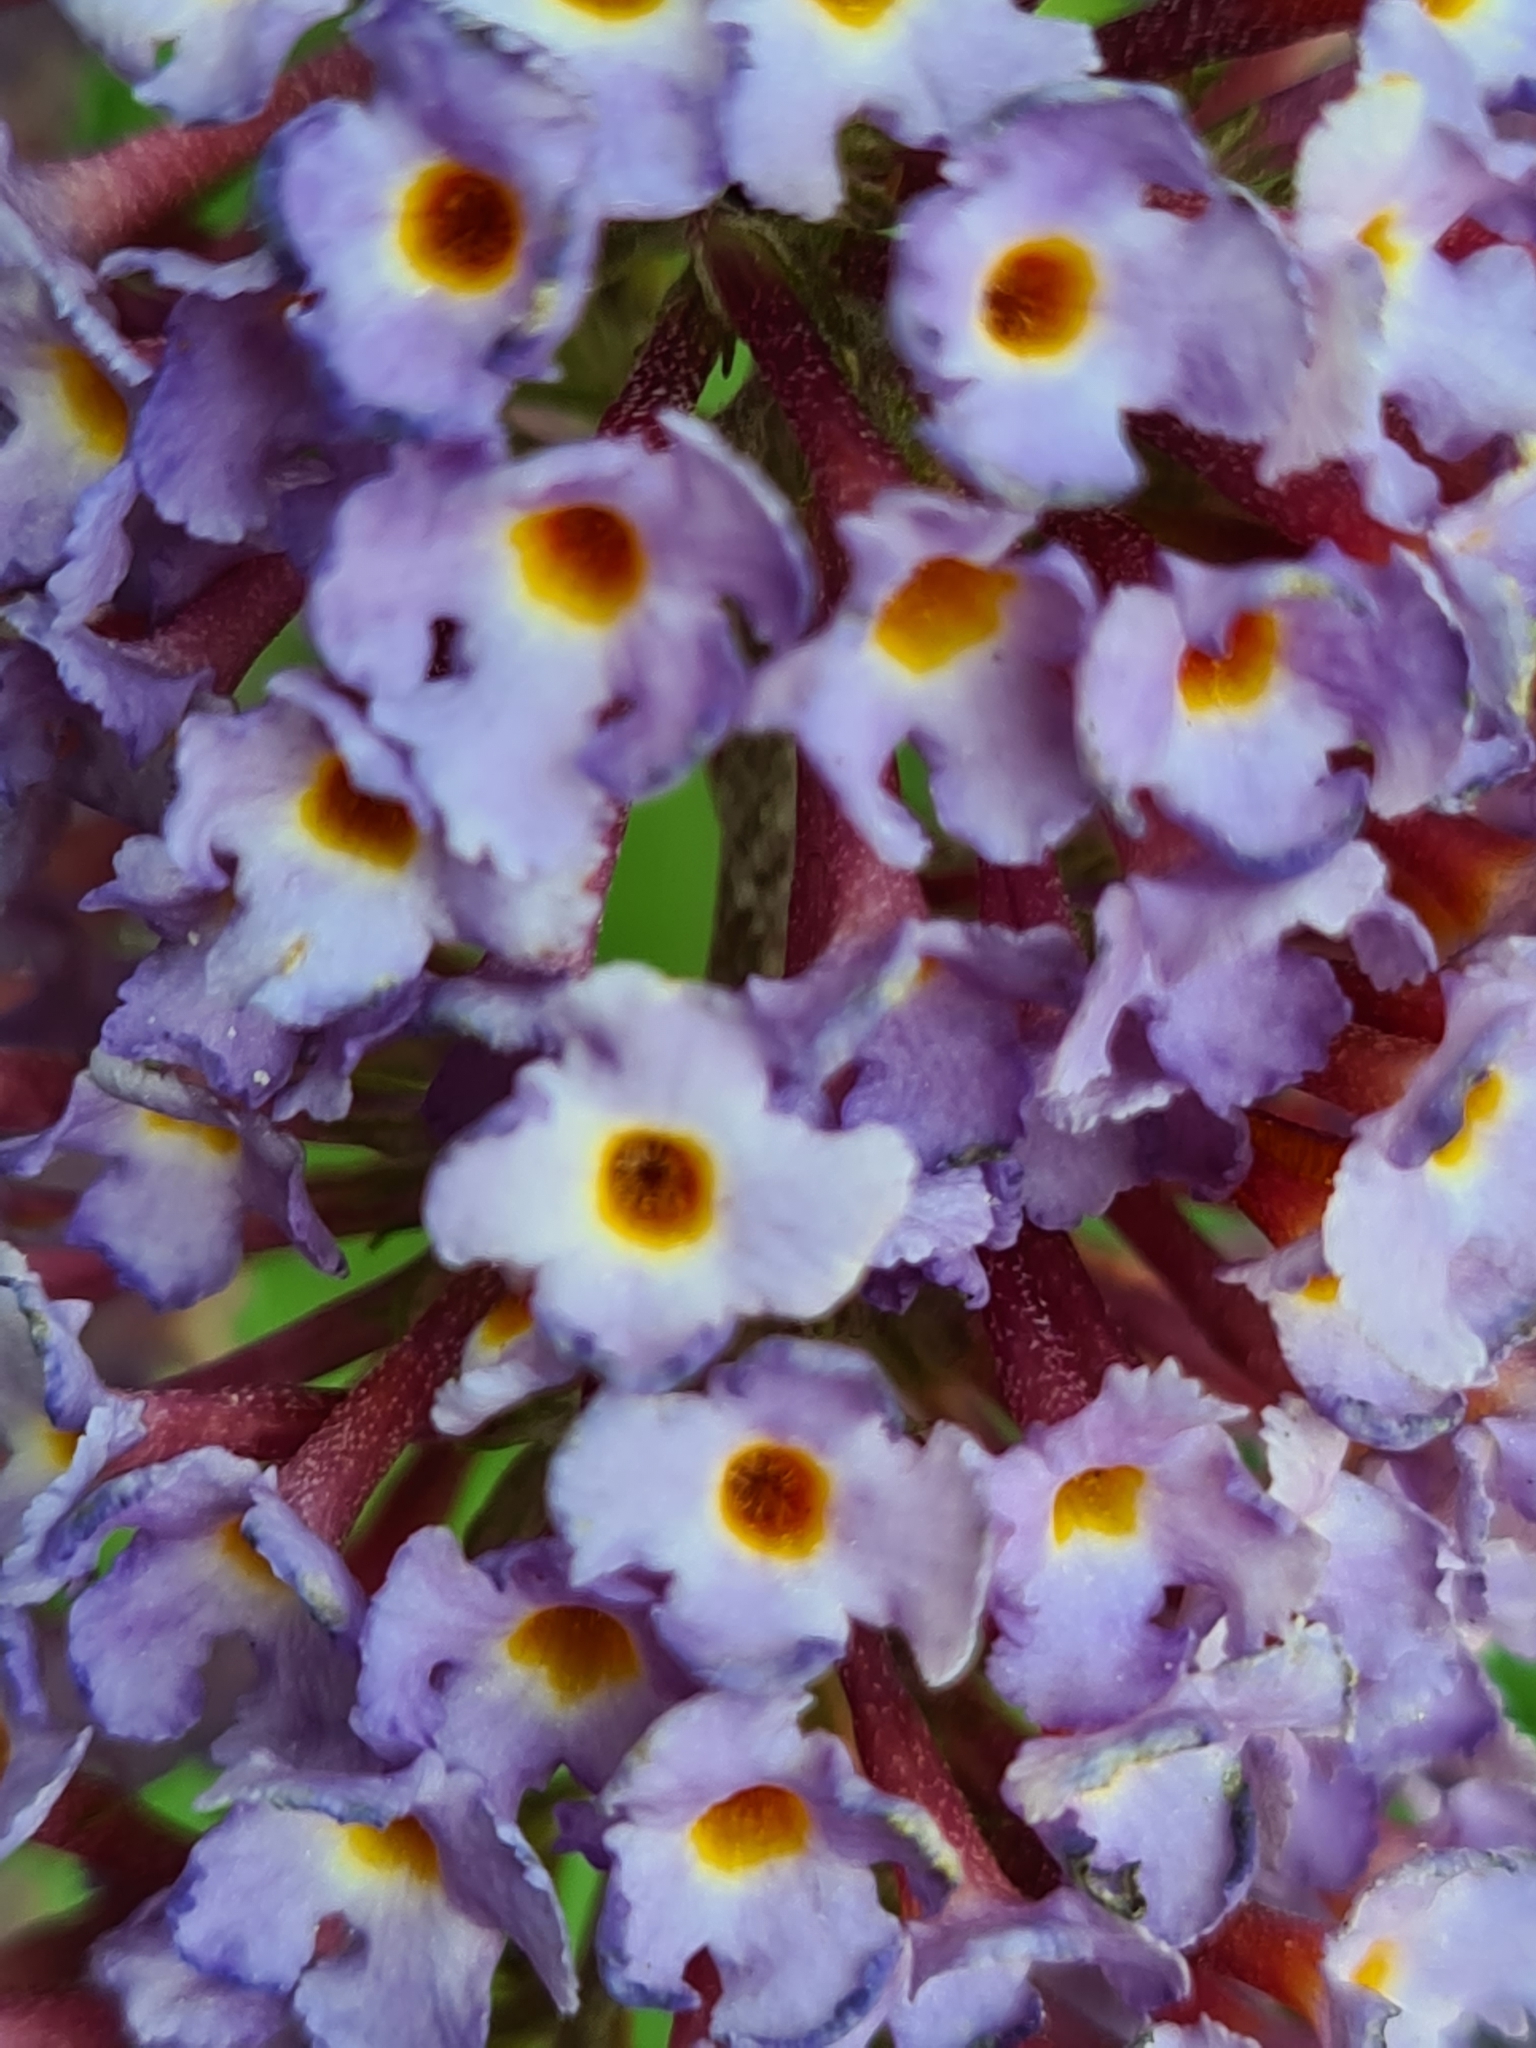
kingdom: Plantae
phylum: Tracheophyta
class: Magnoliopsida
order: Lamiales
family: Scrophulariaceae
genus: Buddleja
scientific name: Buddleja davidii
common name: Butterfly-bush
